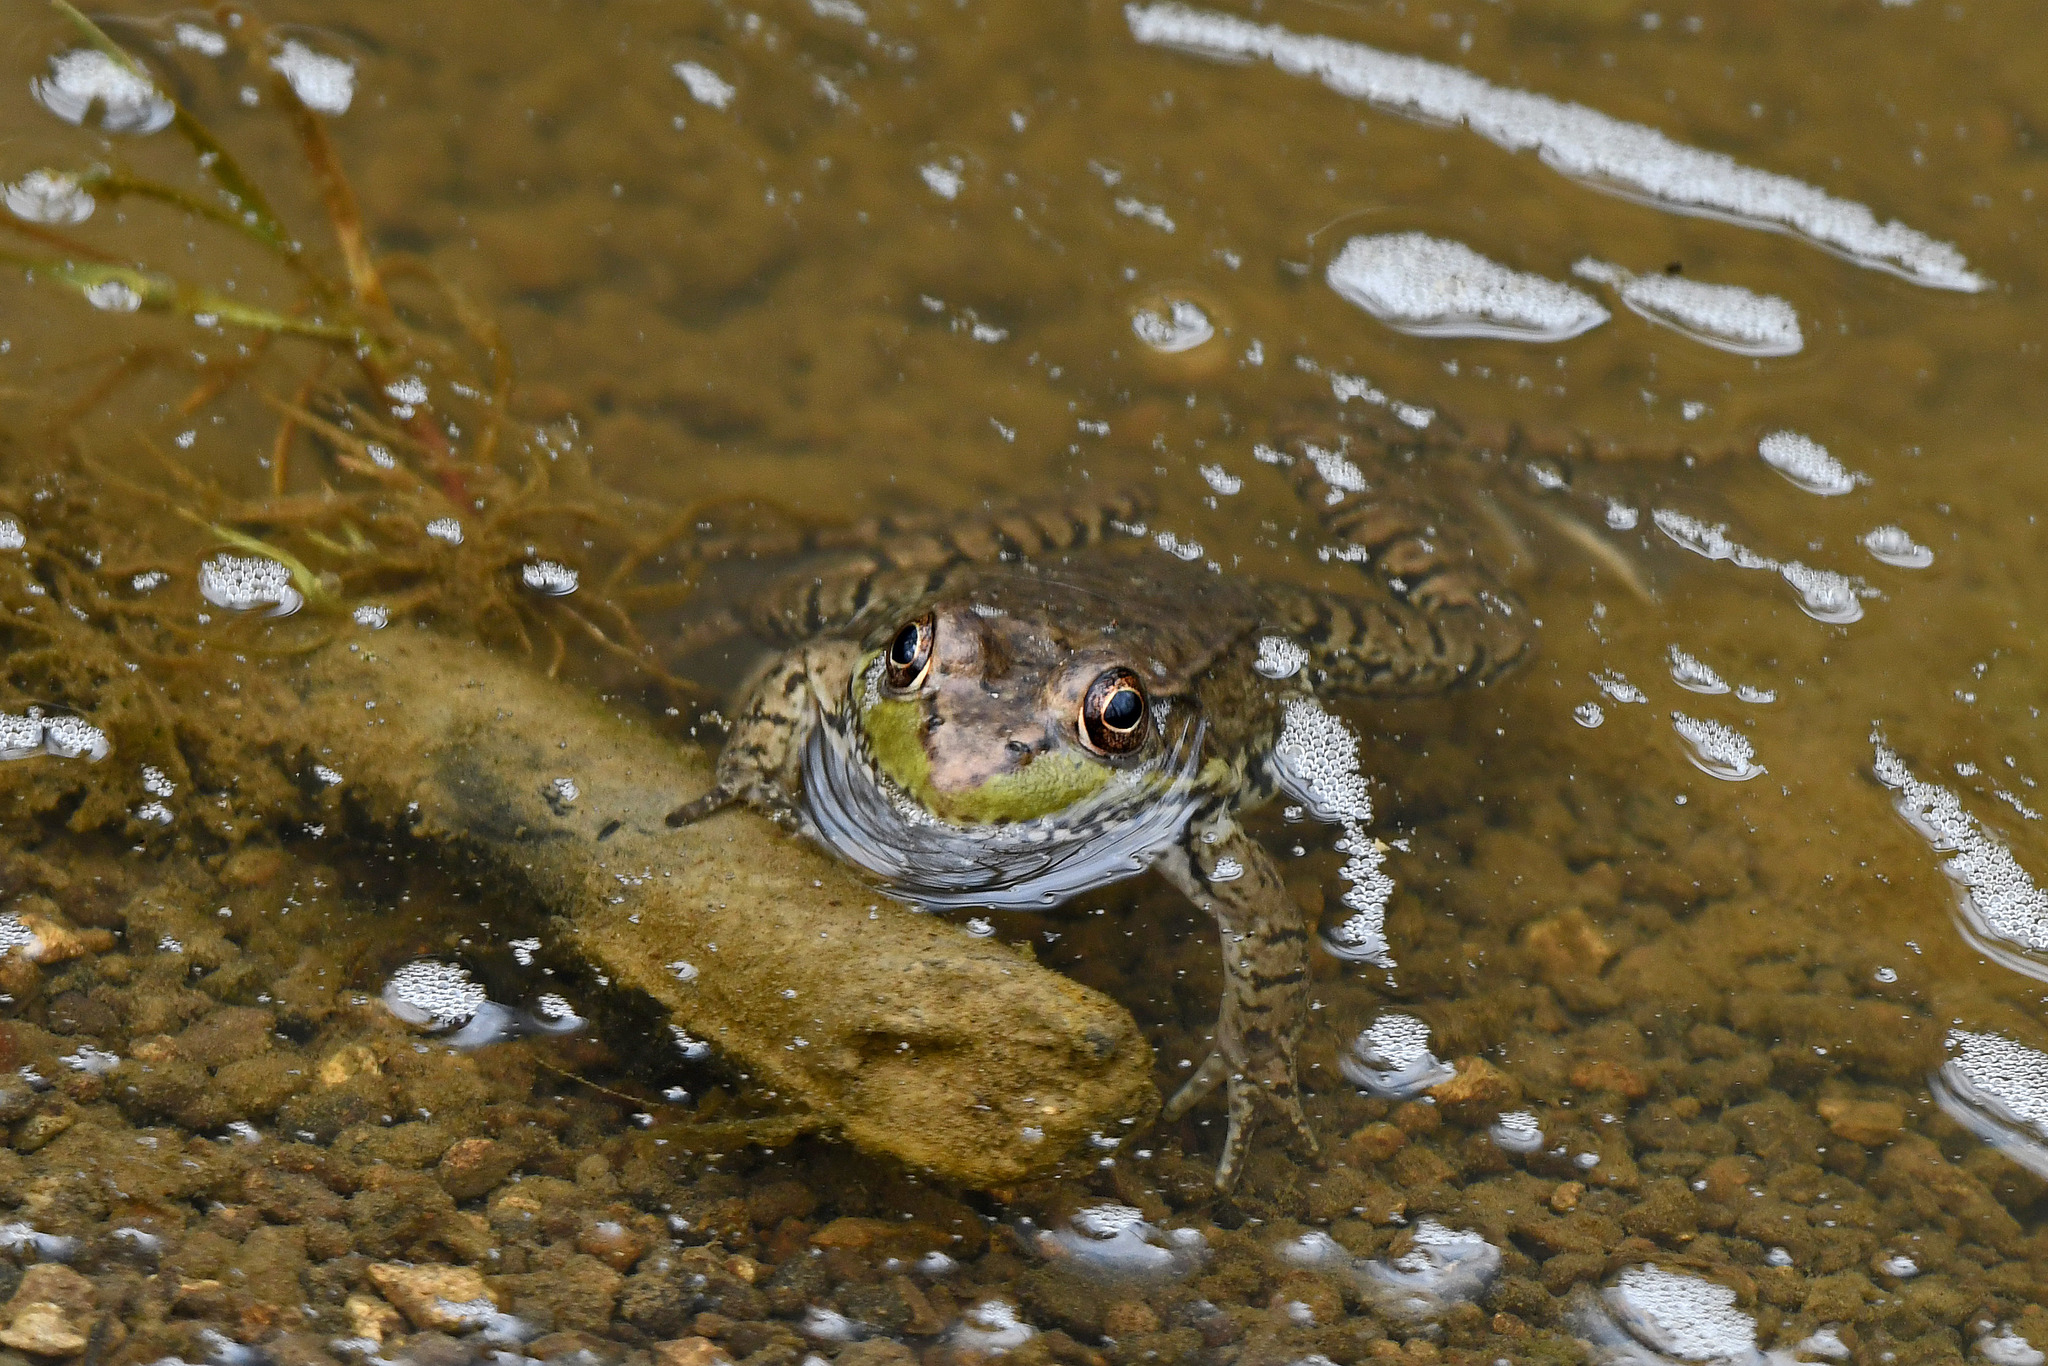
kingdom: Animalia
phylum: Chordata
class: Amphibia
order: Anura
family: Ranidae
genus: Lithobates
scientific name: Lithobates clamitans
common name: Green frog
